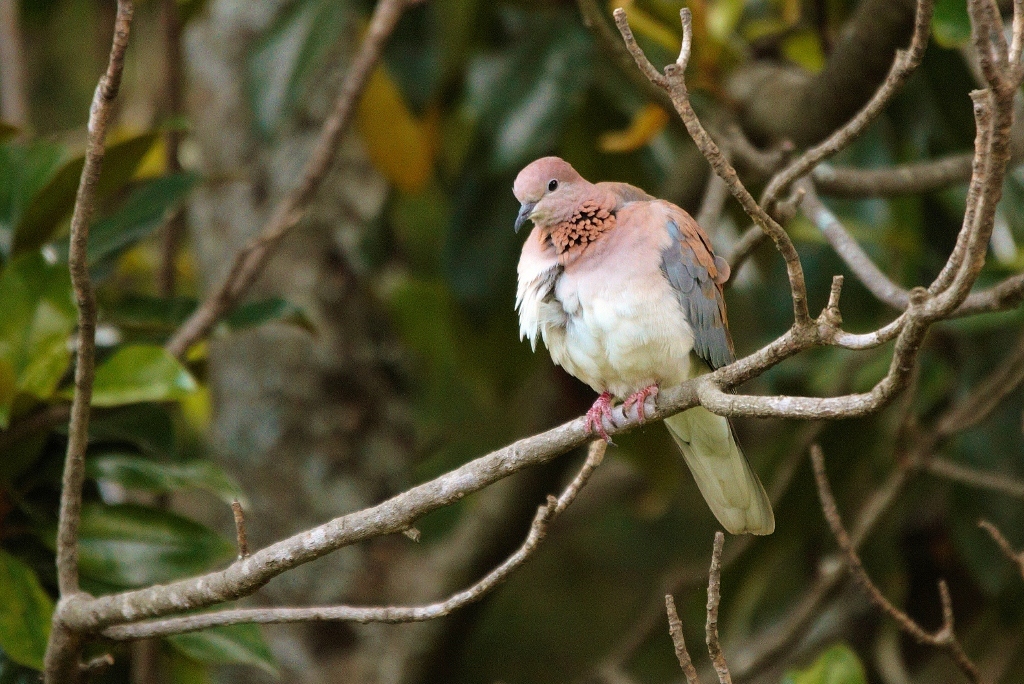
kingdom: Animalia
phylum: Chordata
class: Aves
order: Columbiformes
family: Columbidae
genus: Spilopelia
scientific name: Spilopelia senegalensis
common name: Laughing dove
